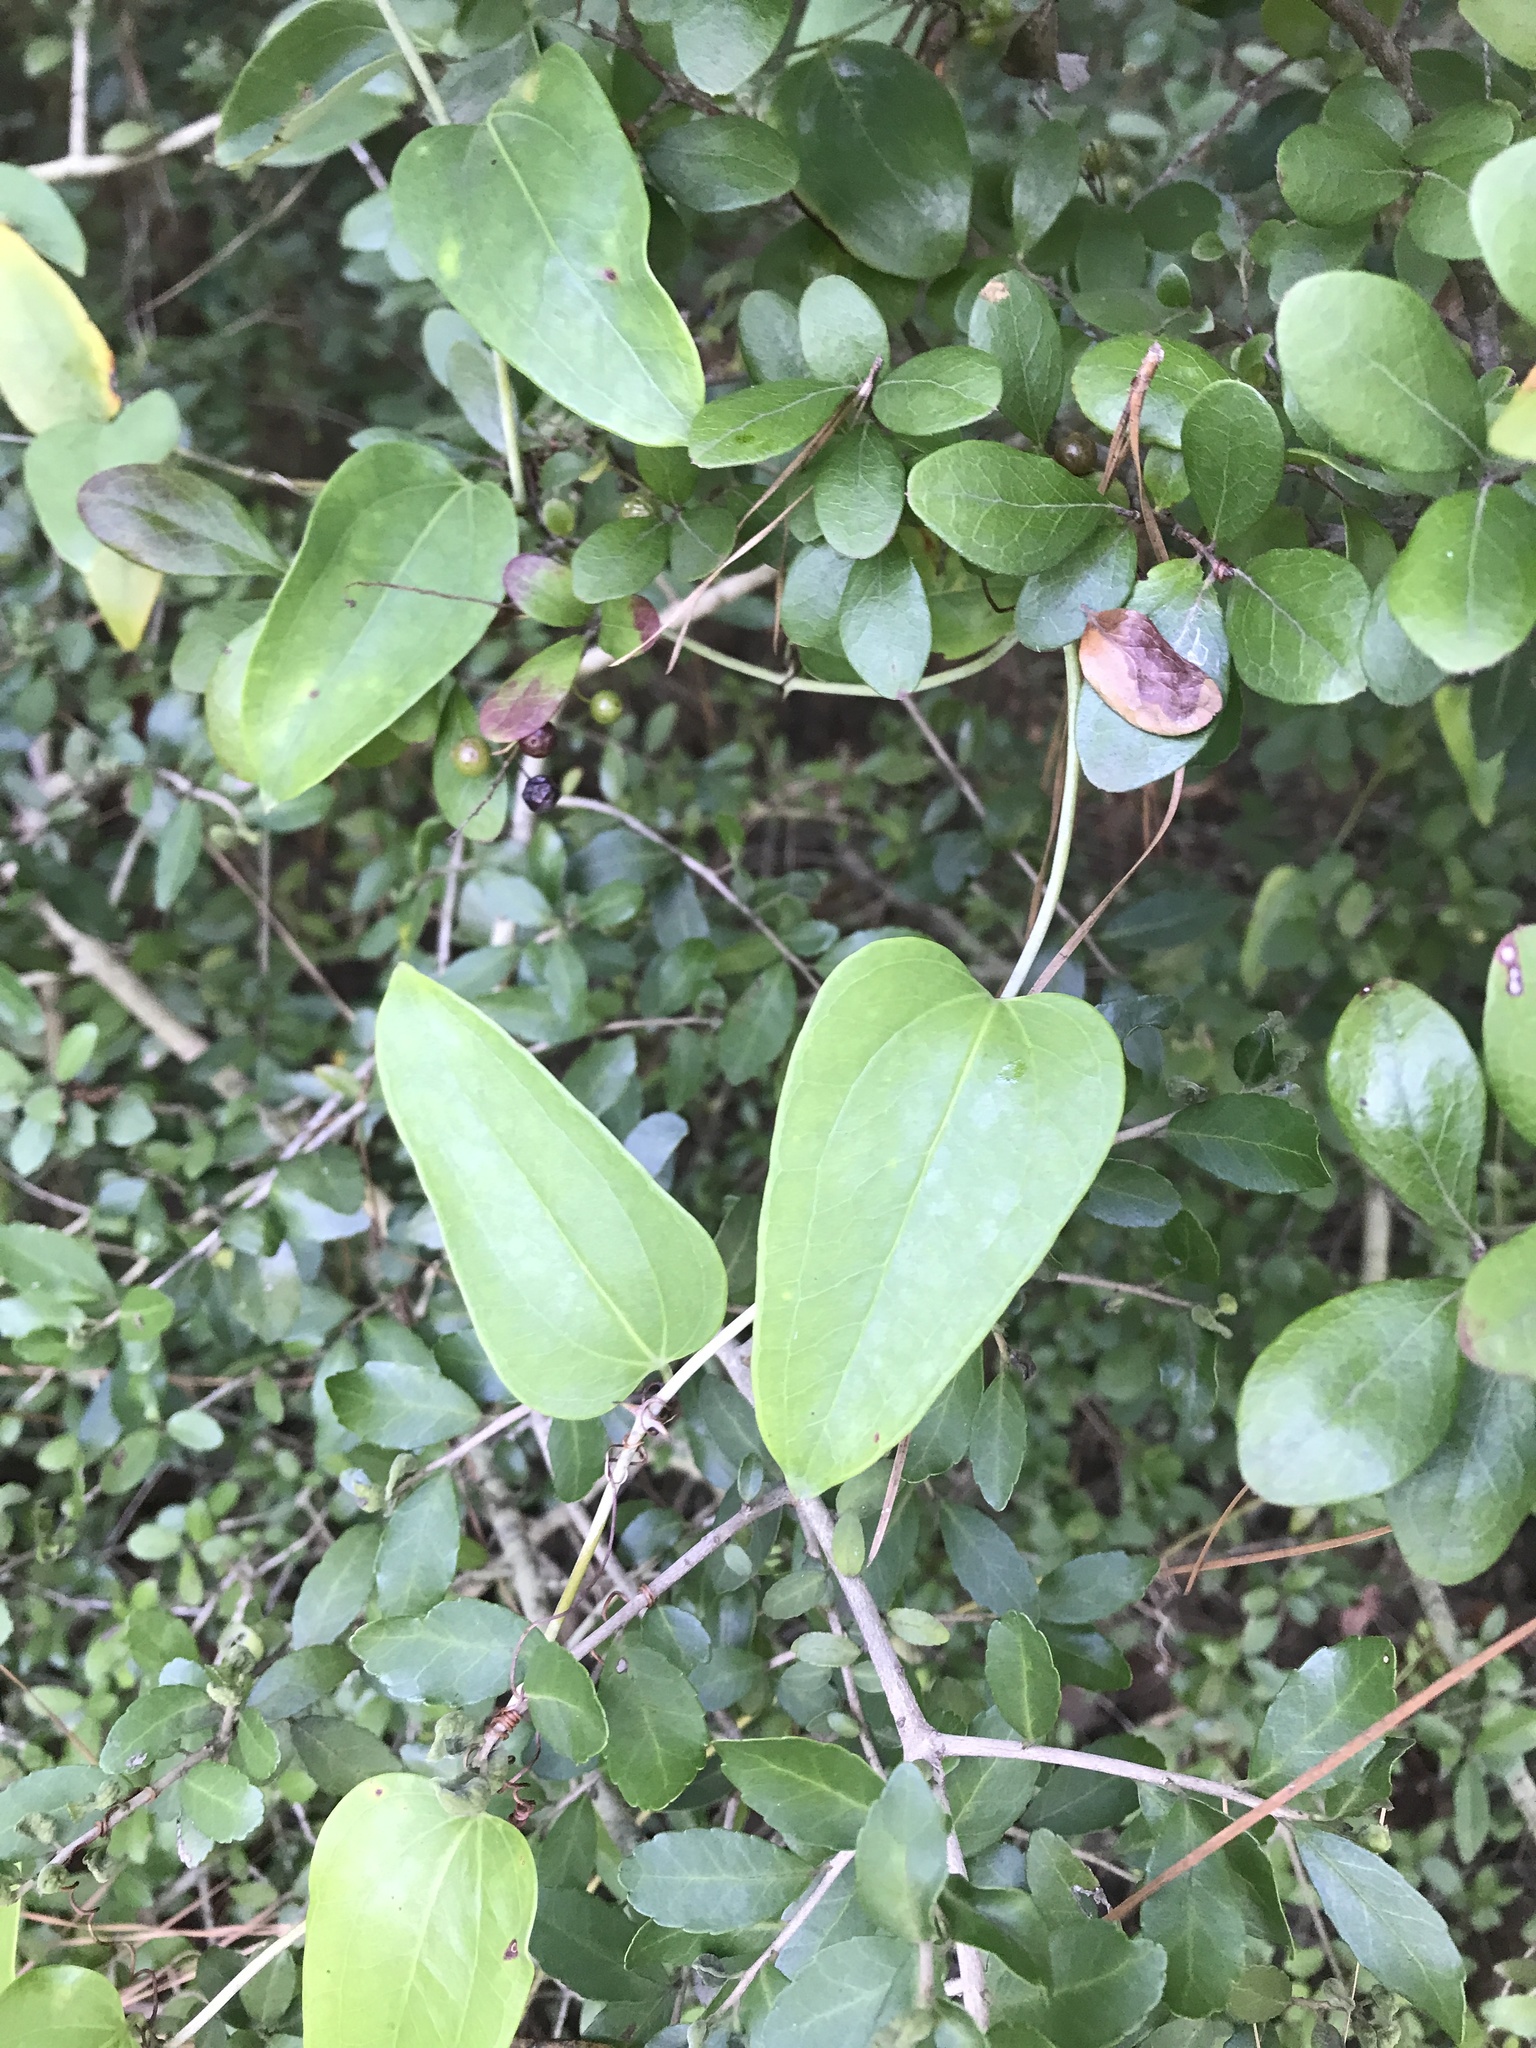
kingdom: Plantae
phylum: Tracheophyta
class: Liliopsida
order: Liliales
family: Smilacaceae
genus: Smilax
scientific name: Smilax glauca
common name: Cat greenbrier
